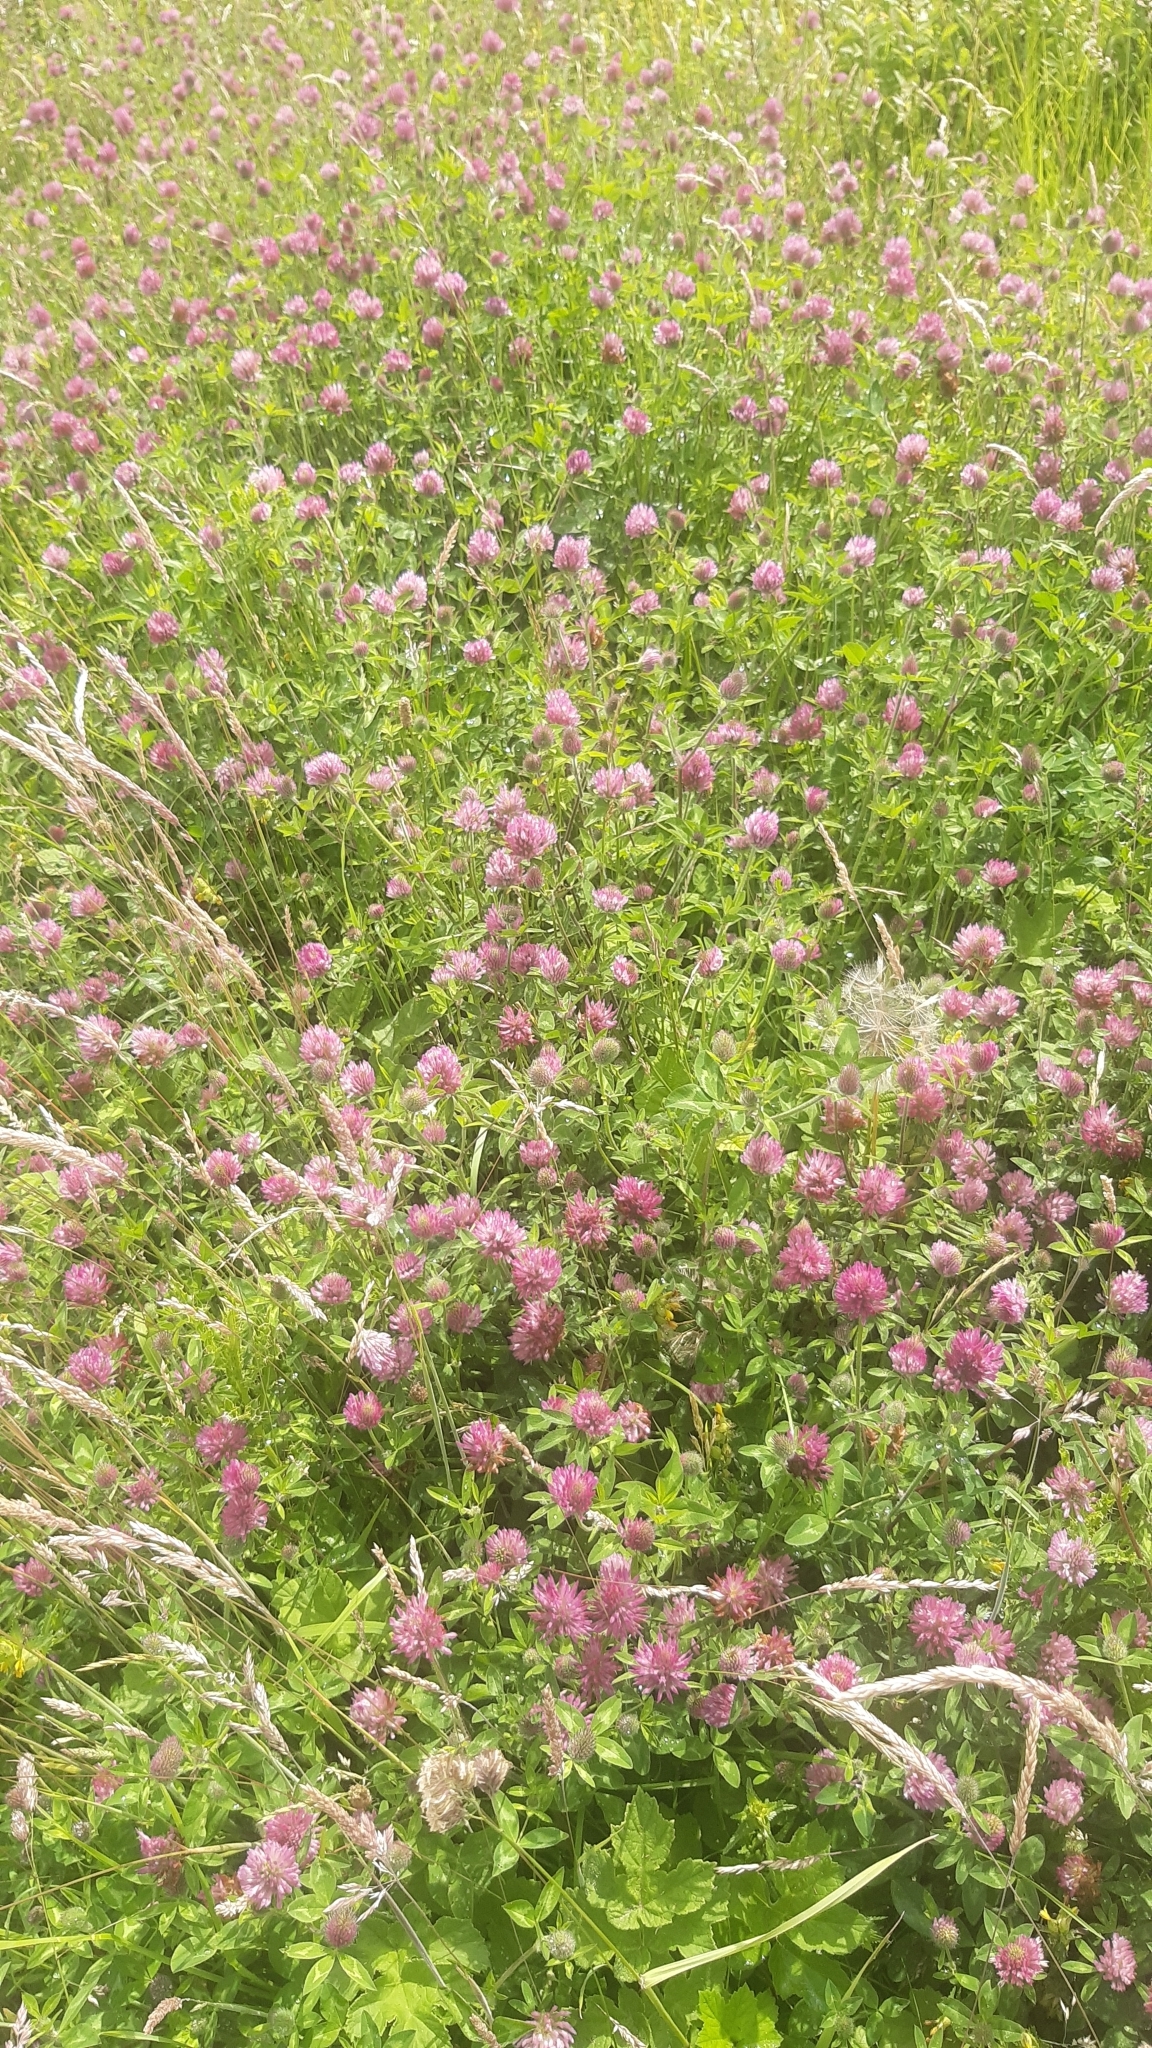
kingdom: Plantae
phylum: Tracheophyta
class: Magnoliopsida
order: Fabales
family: Fabaceae
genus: Trifolium
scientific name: Trifolium pratense
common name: Red clover
